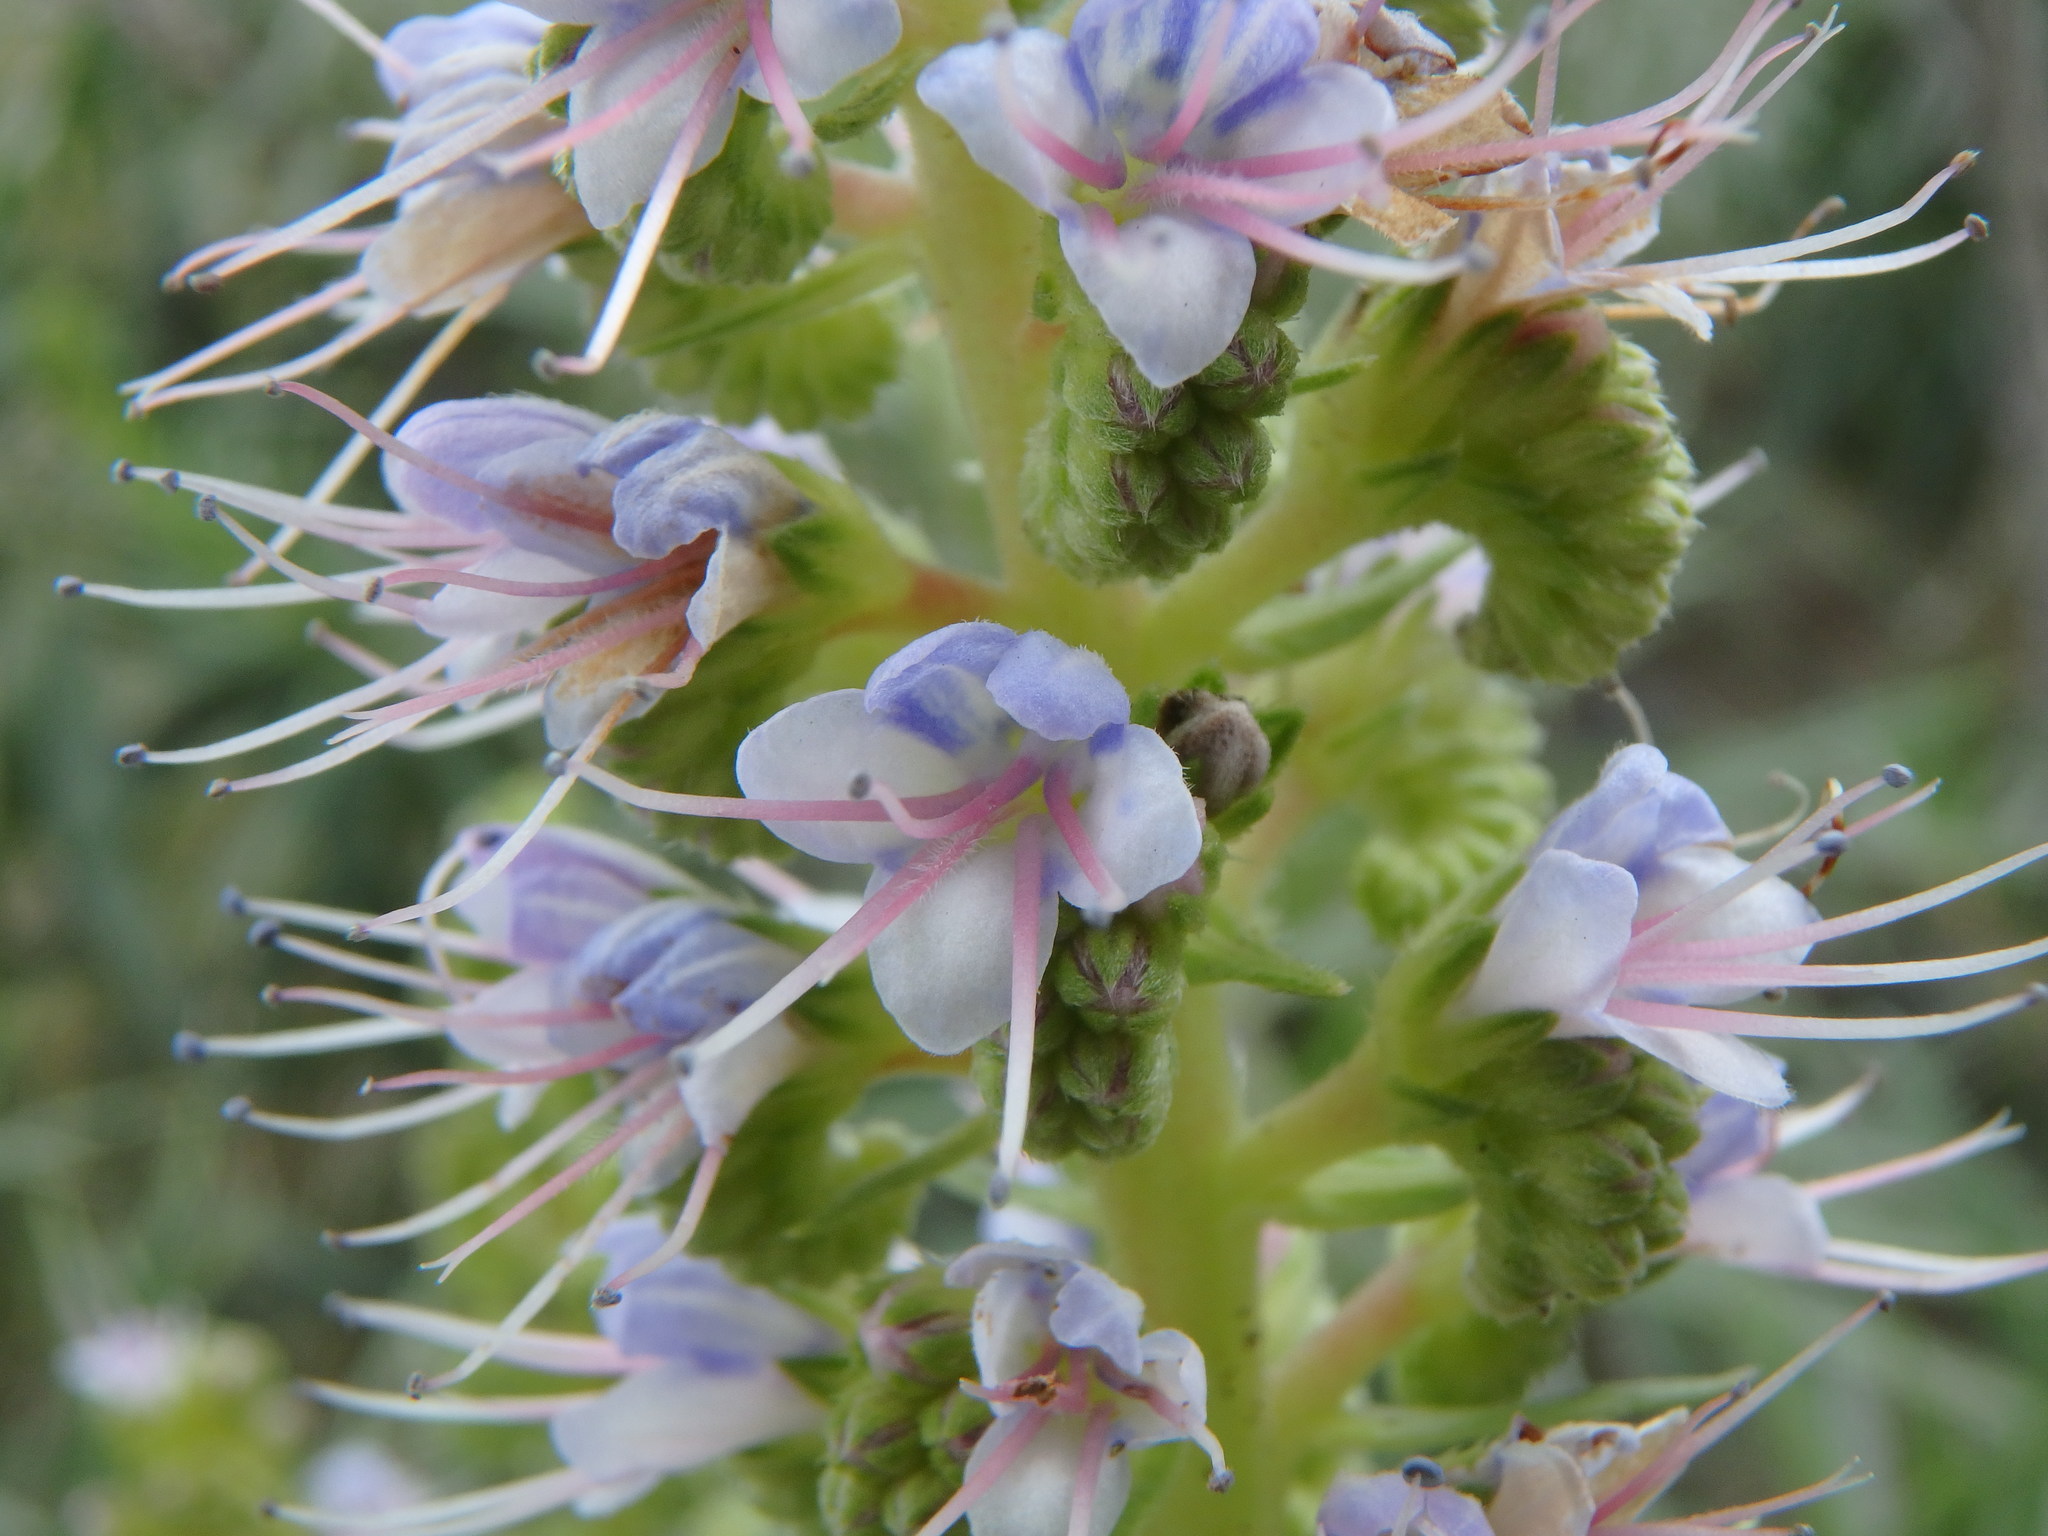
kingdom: Plantae
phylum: Tracheophyta
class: Magnoliopsida
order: Boraginales
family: Boraginaceae
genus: Echium
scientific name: Echium virescens
